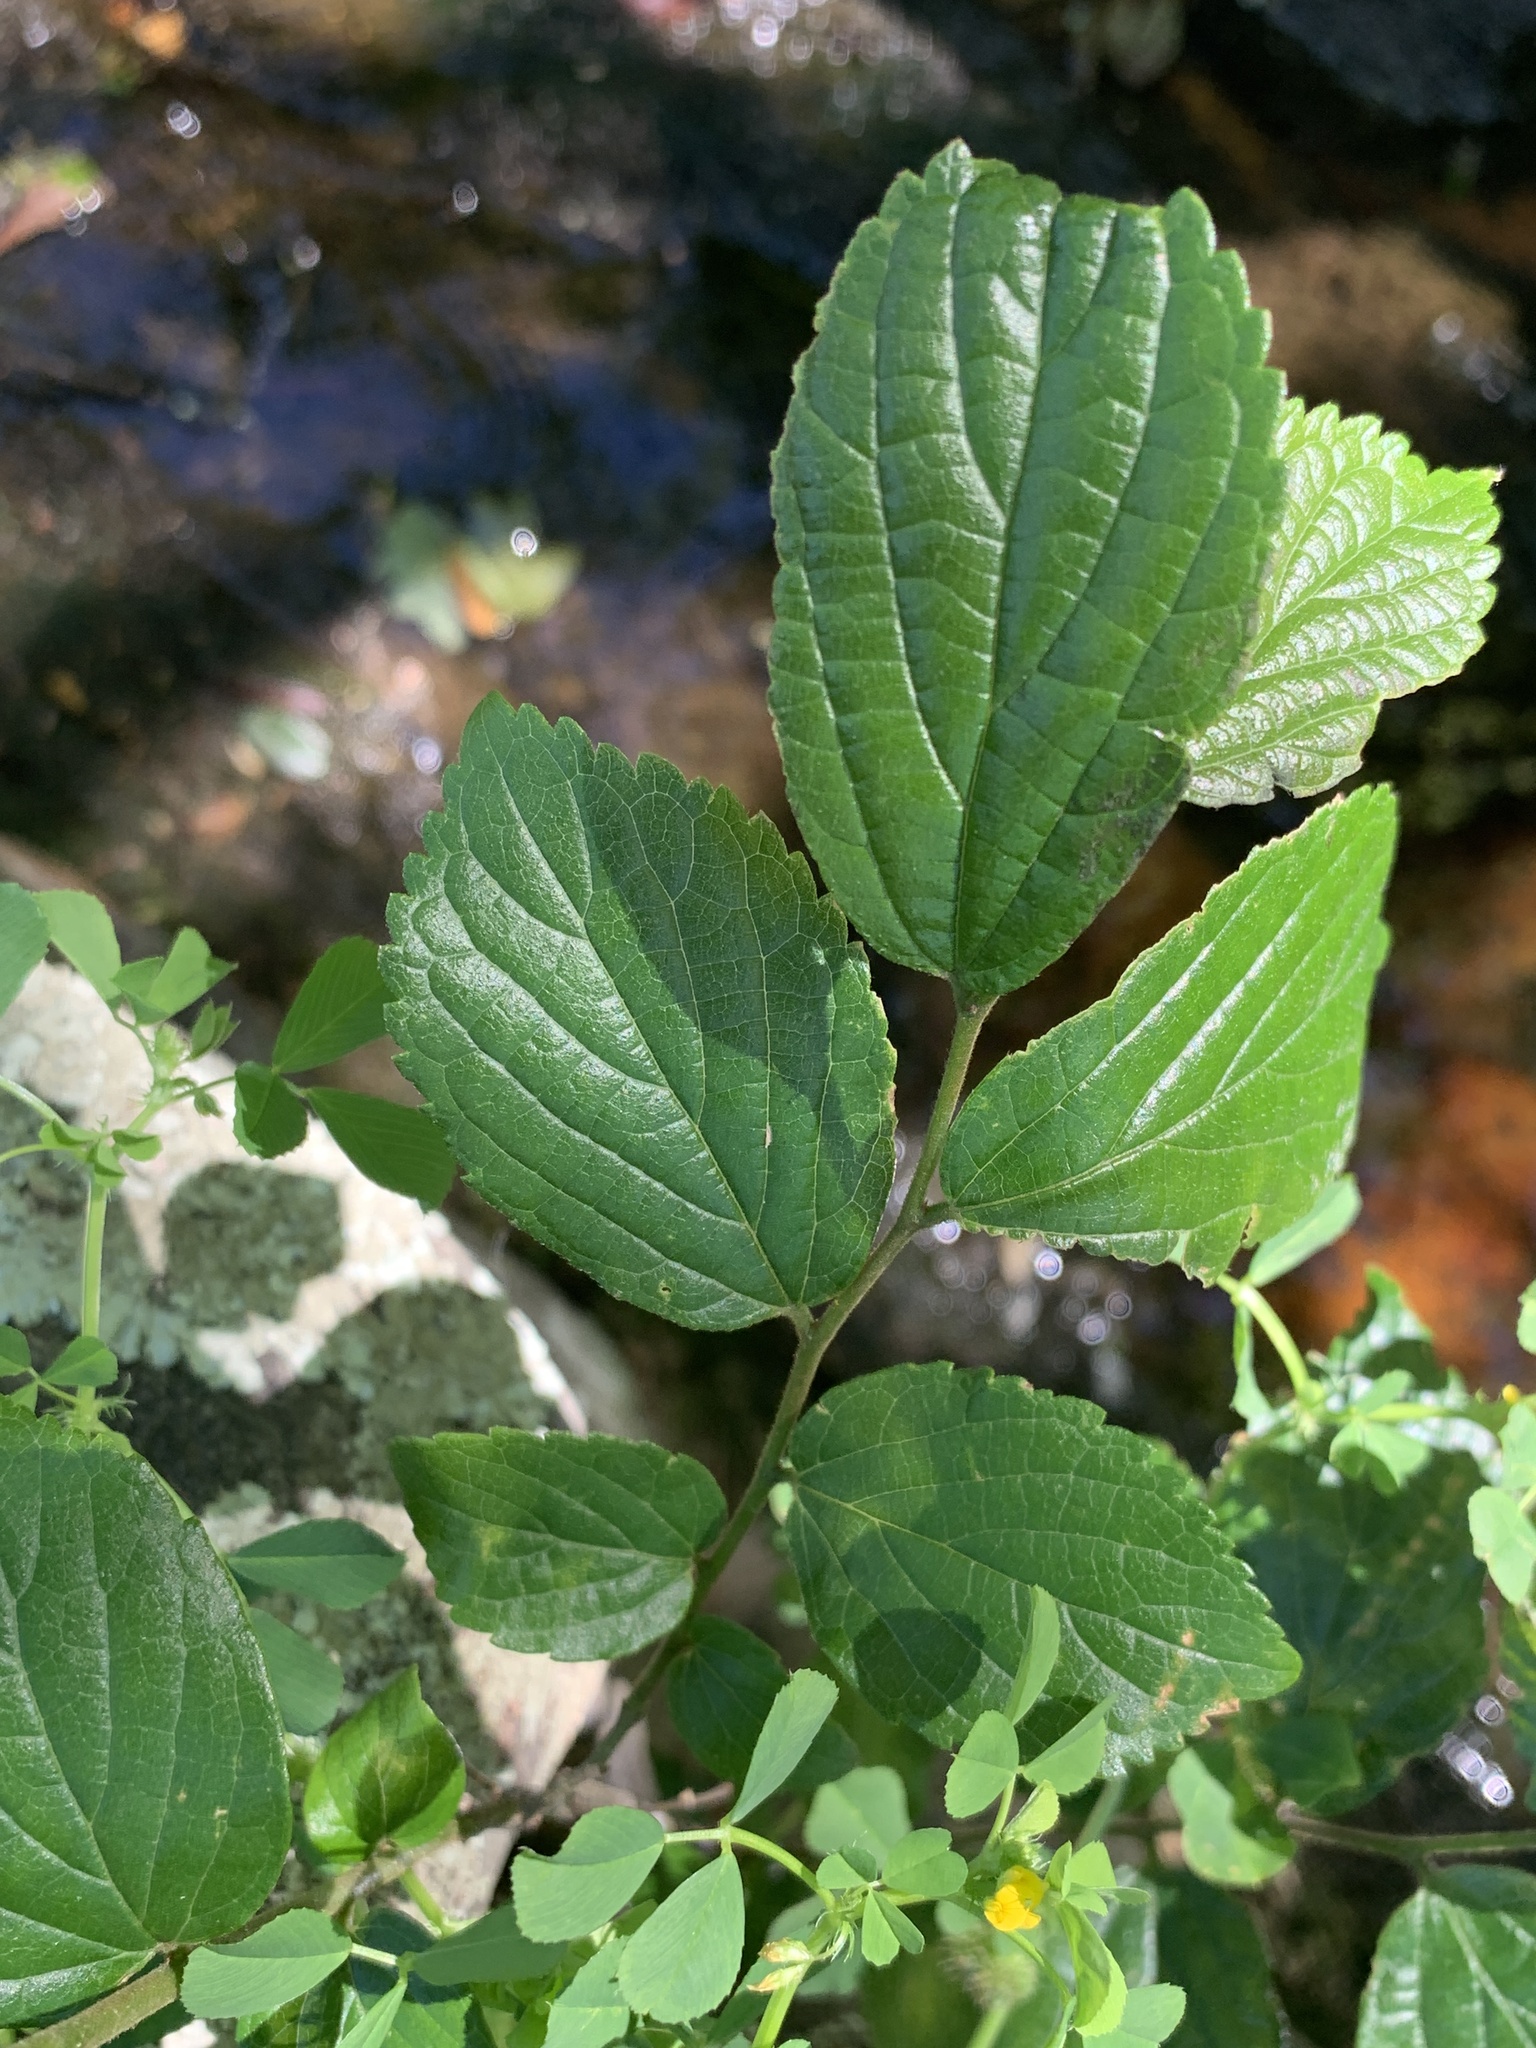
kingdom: Plantae
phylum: Tracheophyta
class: Magnoliopsida
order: Rosales
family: Cannabaceae
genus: Celtis
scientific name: Celtis sinensis
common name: Chinese hackberry
